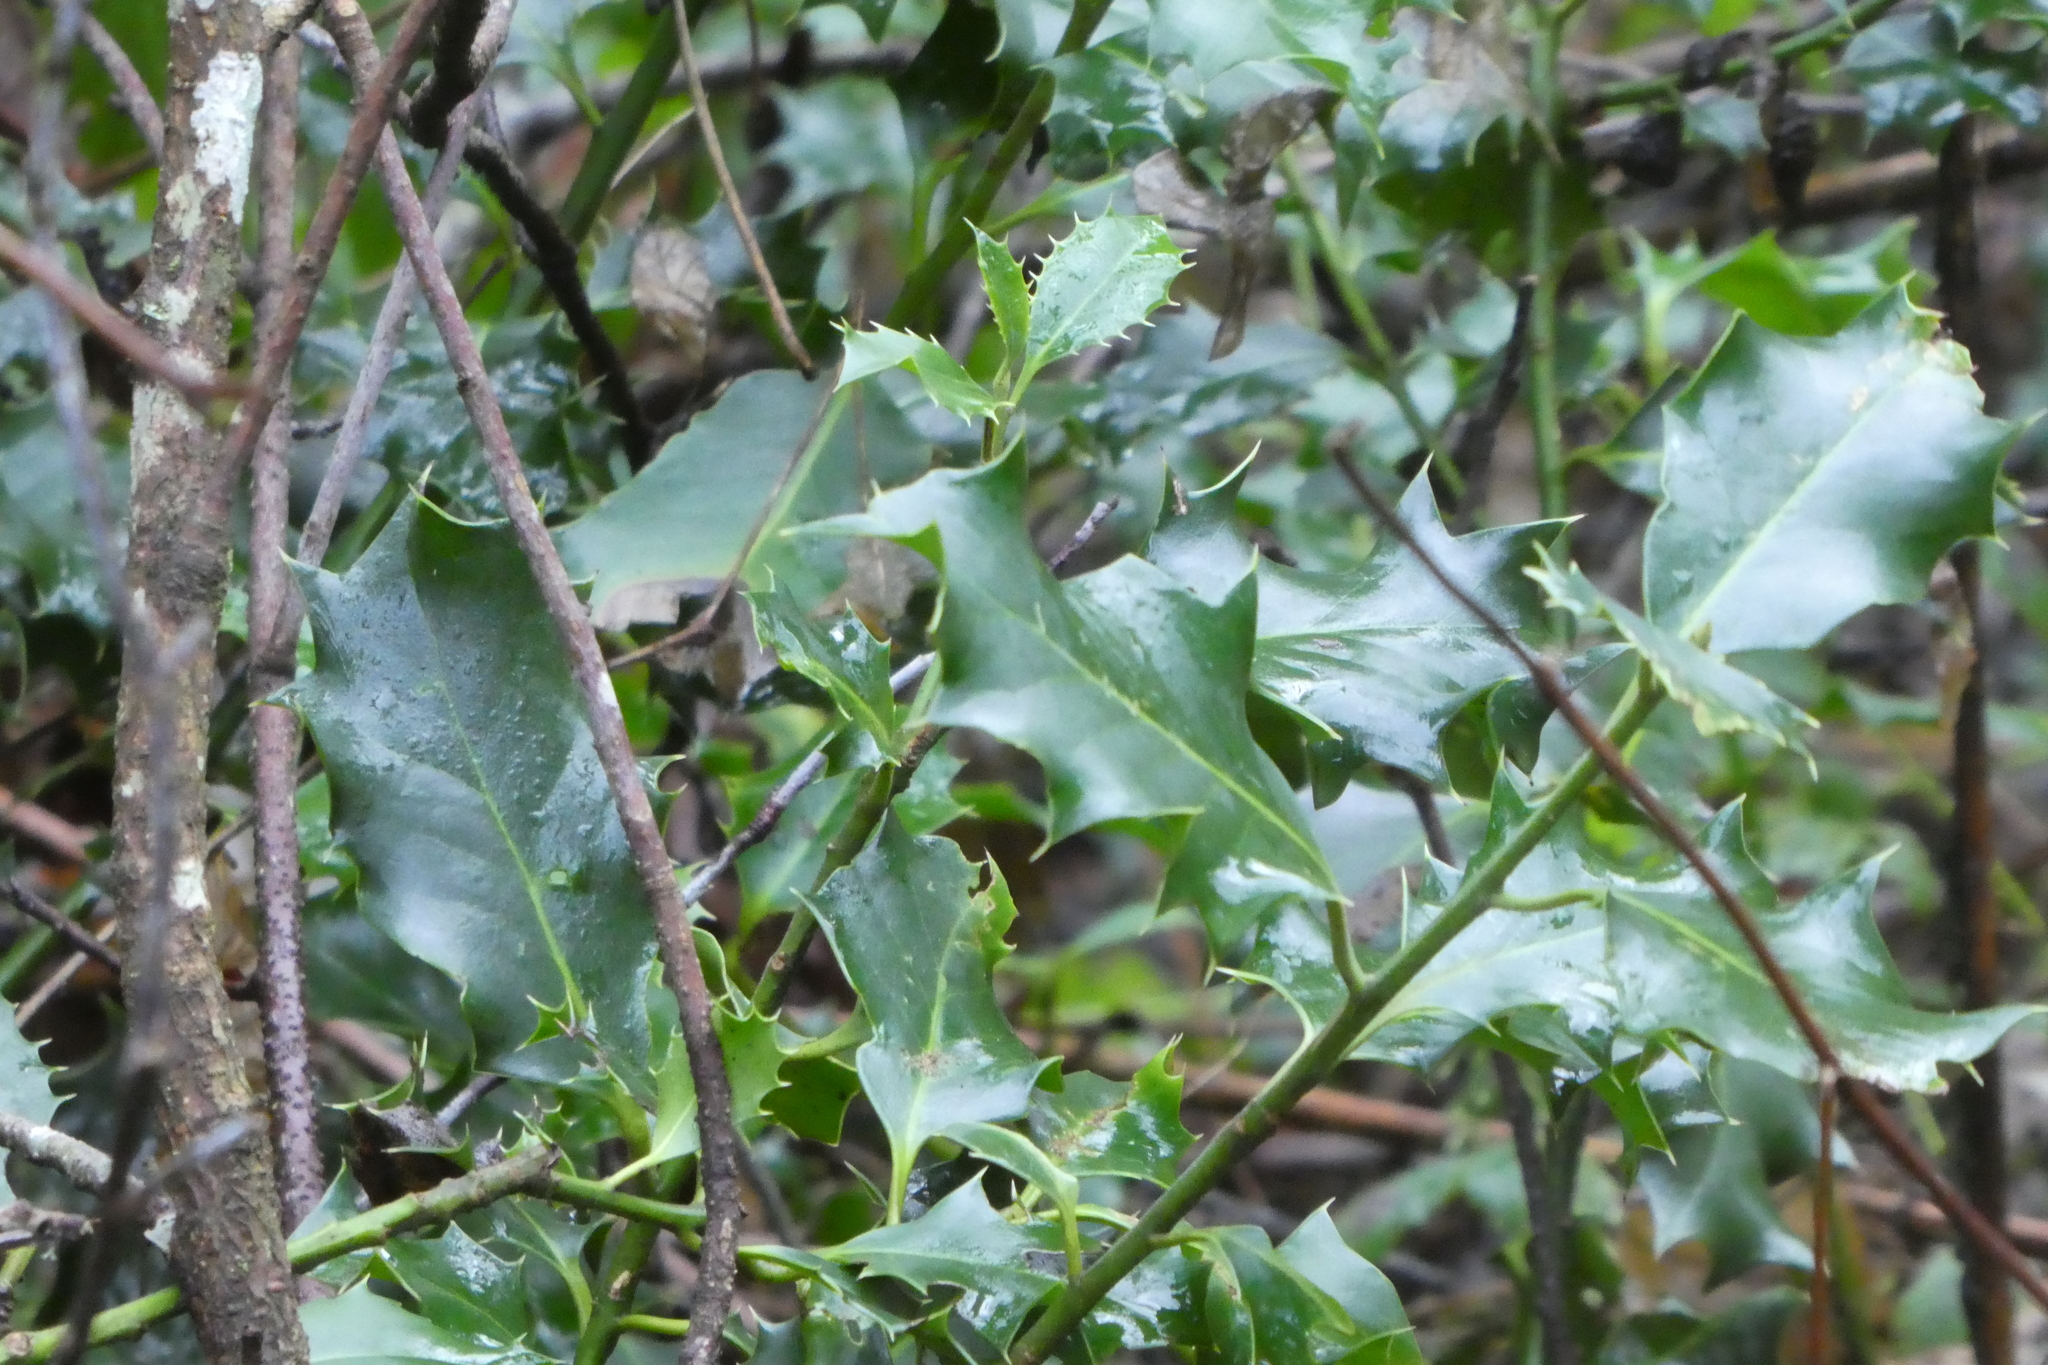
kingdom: Plantae
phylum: Tracheophyta
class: Magnoliopsida
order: Aquifoliales
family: Aquifoliaceae
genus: Ilex
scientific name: Ilex aquifolium
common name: English holly
